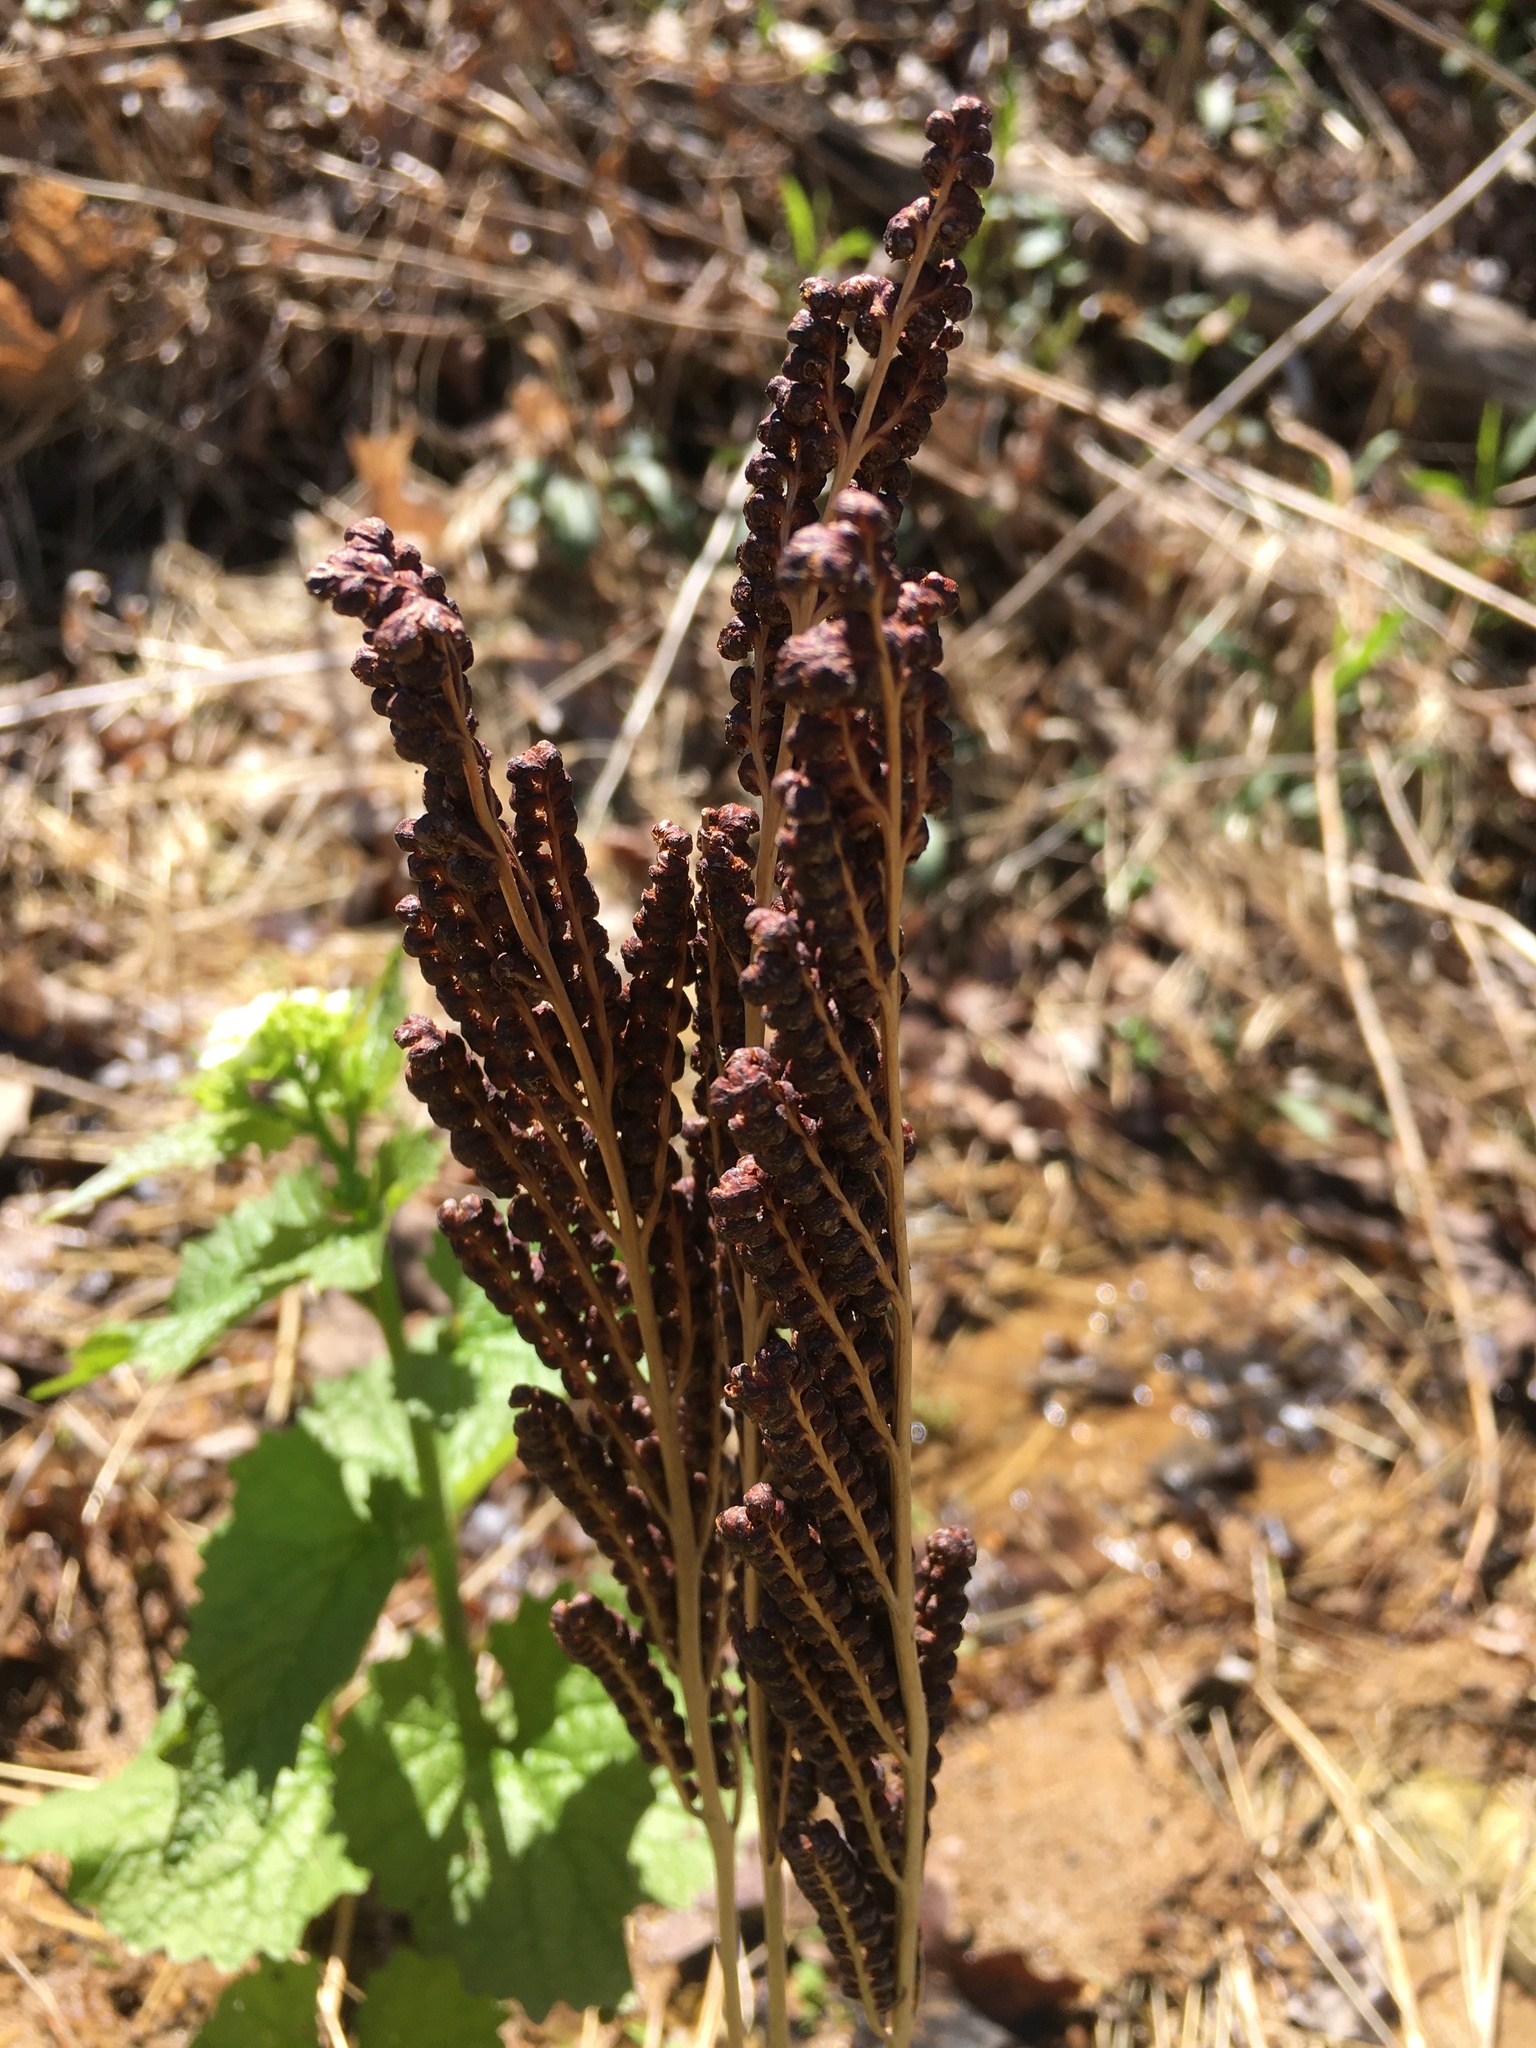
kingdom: Plantae
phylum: Tracheophyta
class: Polypodiopsida
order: Polypodiales
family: Onocleaceae
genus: Onoclea
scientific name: Onoclea sensibilis
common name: Sensitive fern
